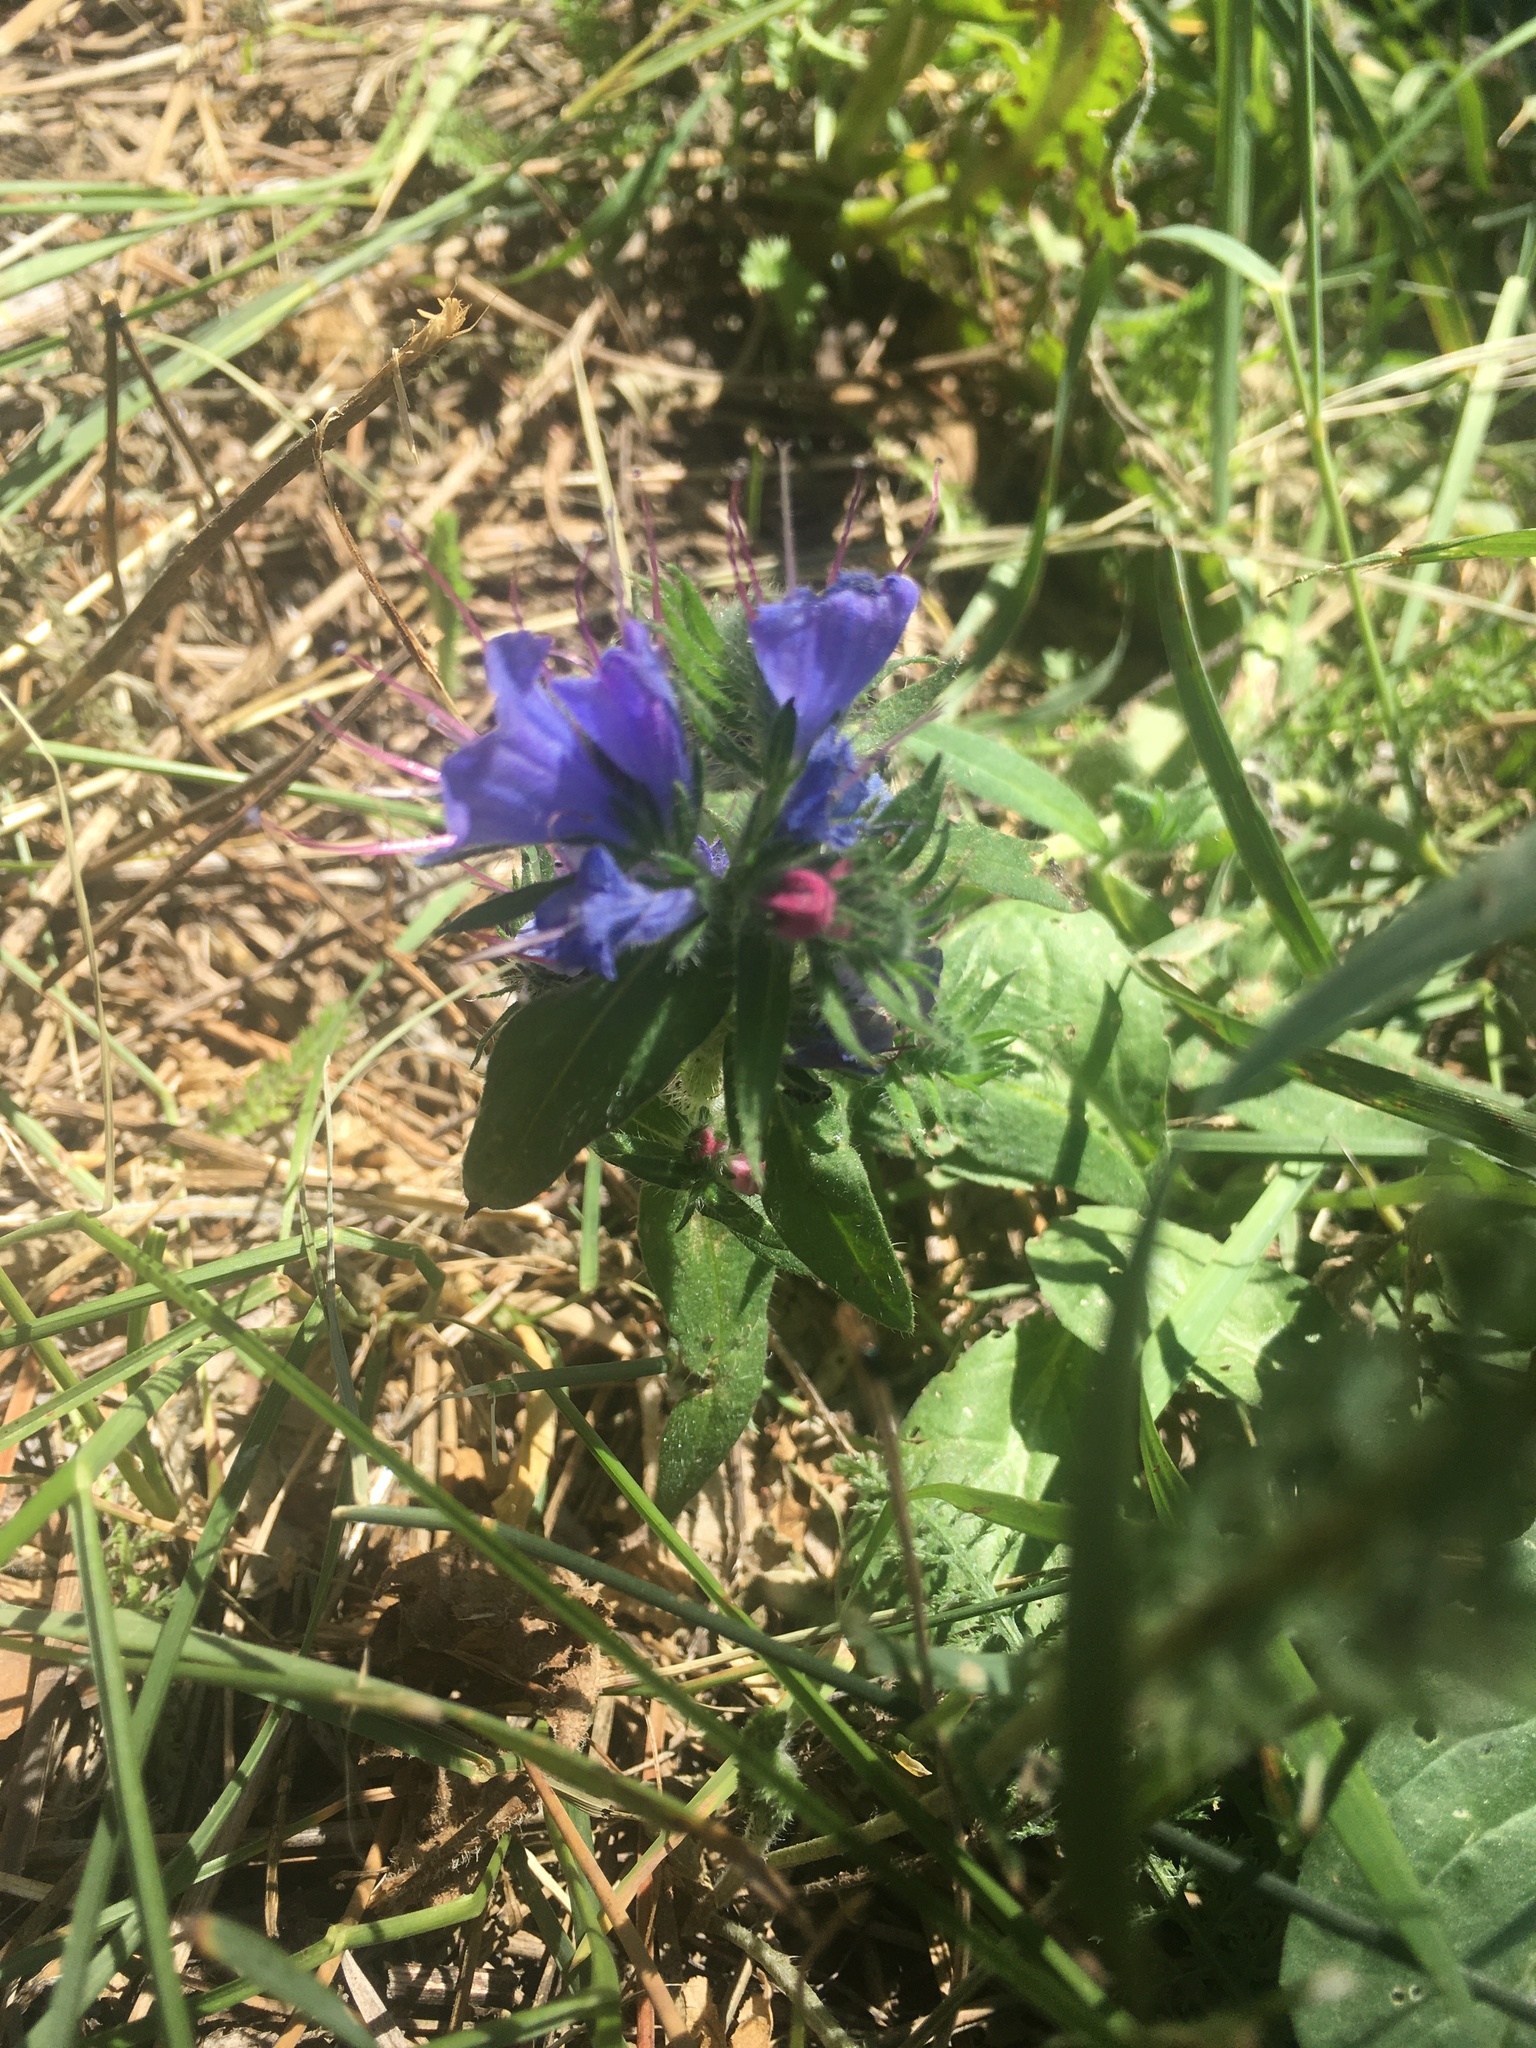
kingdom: Plantae
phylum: Tracheophyta
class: Magnoliopsida
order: Boraginales
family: Boraginaceae
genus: Echium
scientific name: Echium vulgare
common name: Common viper's bugloss
